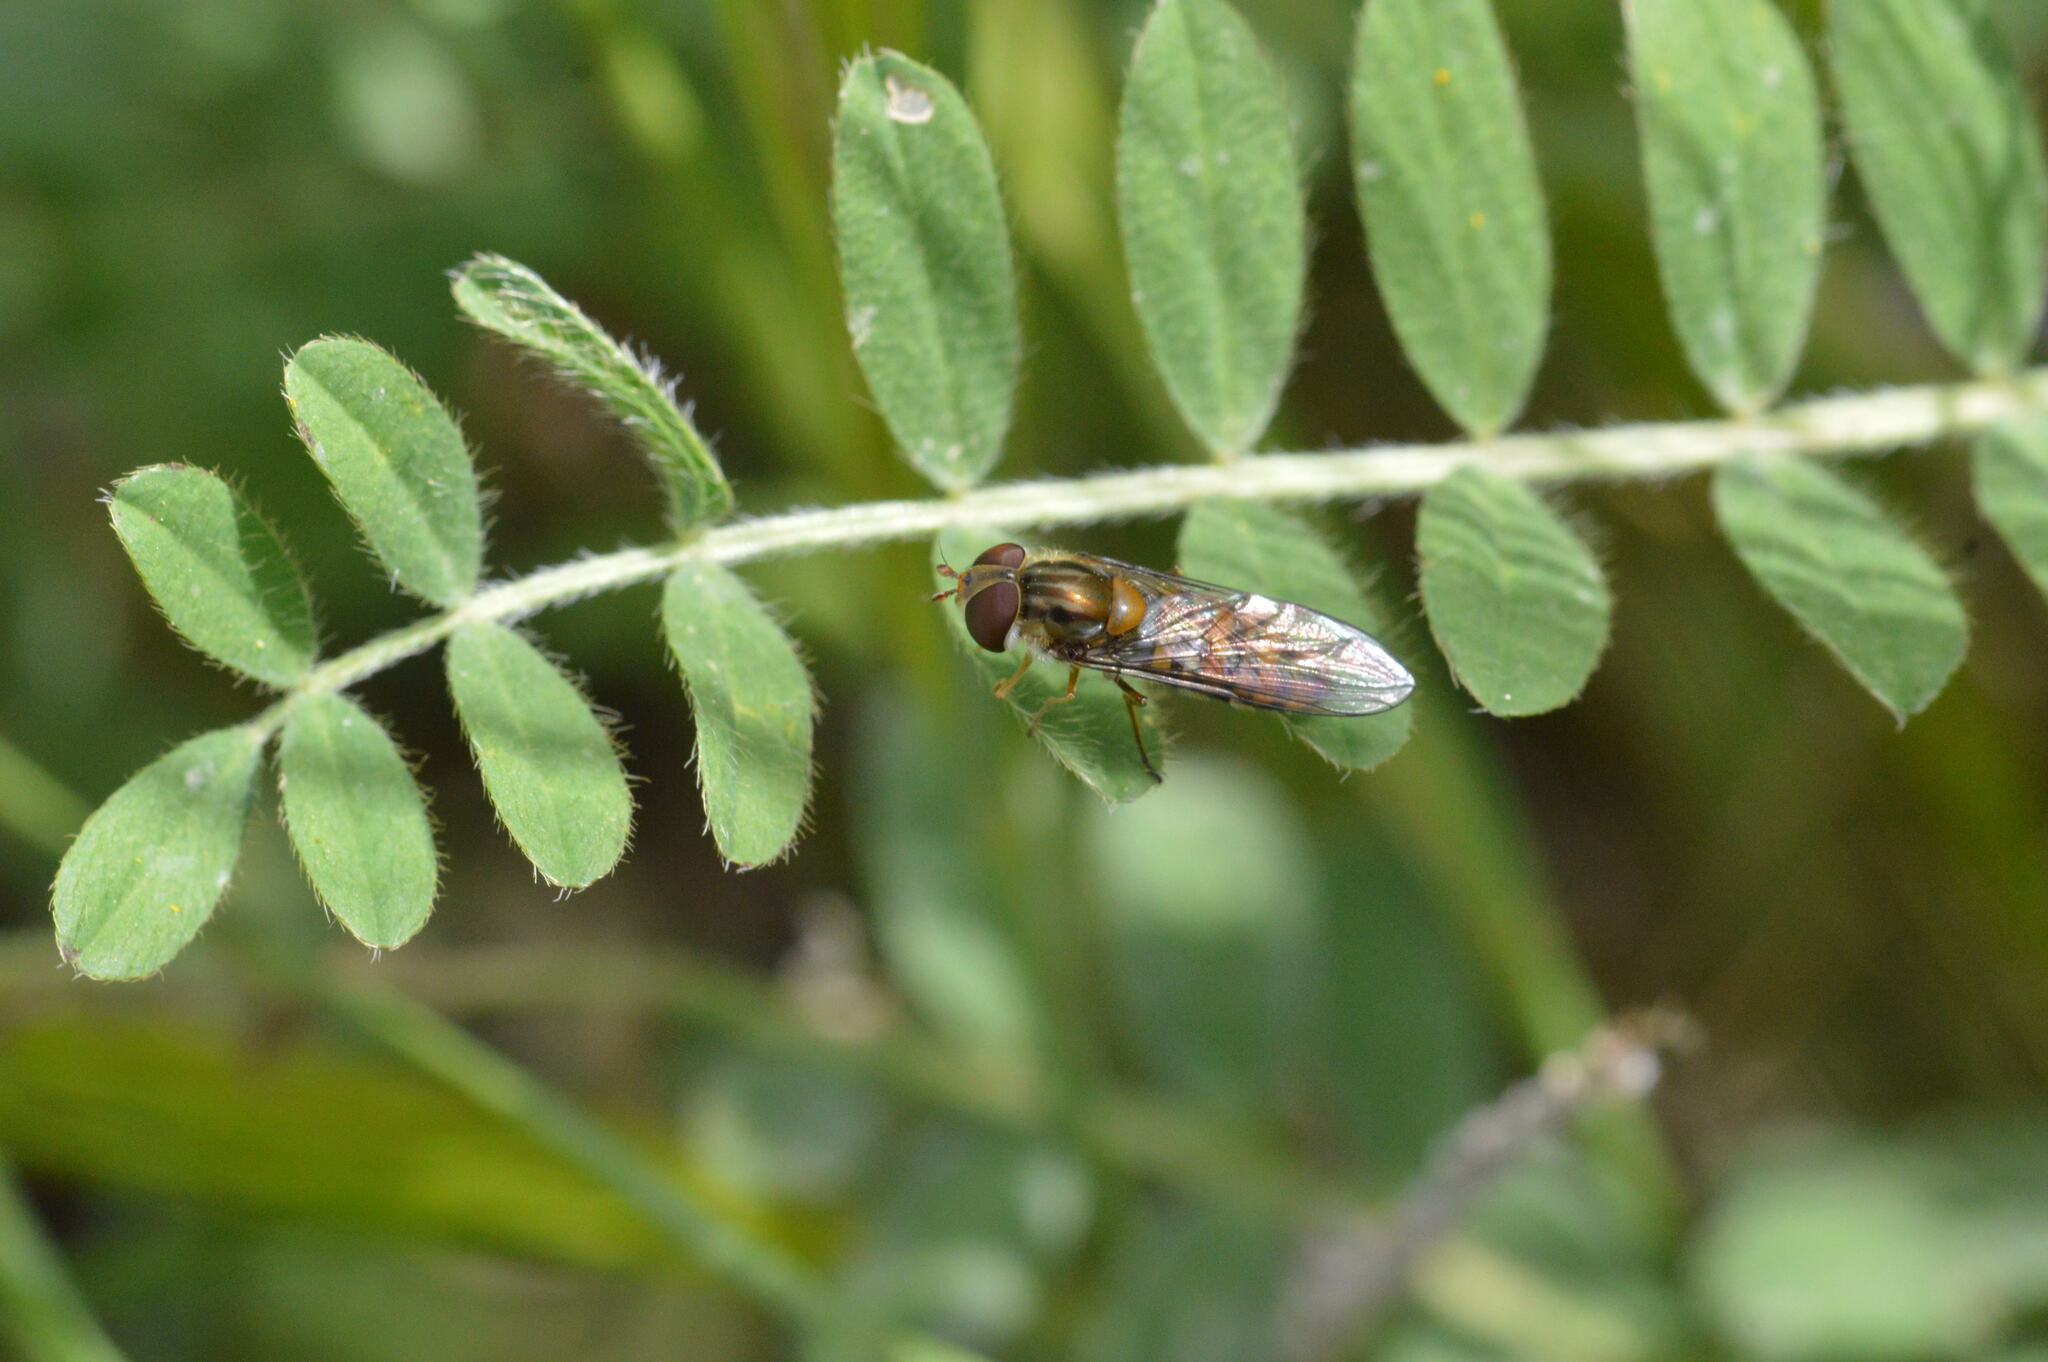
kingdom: Animalia
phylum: Arthropoda
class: Insecta
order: Diptera
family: Syrphidae
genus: Episyrphus
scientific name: Episyrphus balteatus
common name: Marmalade hoverfly
